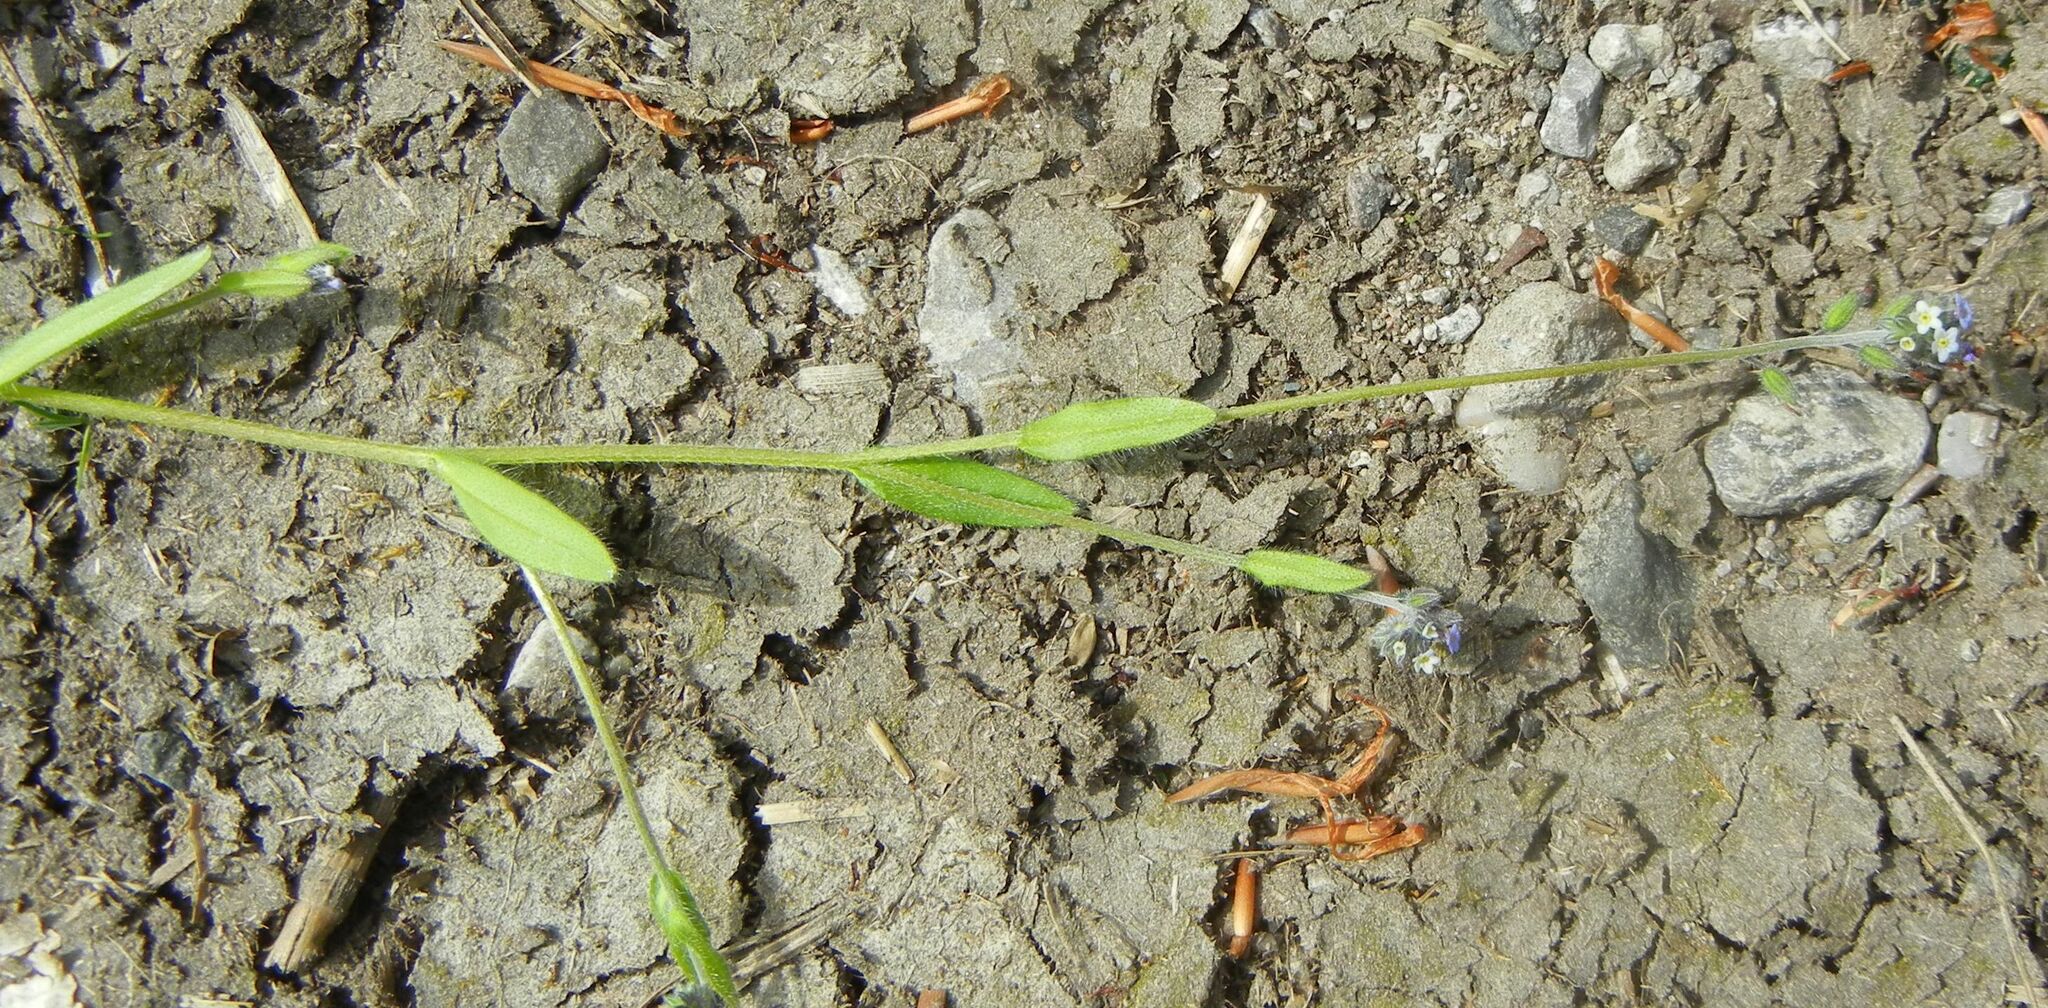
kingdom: Plantae
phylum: Tracheophyta
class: Magnoliopsida
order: Boraginales
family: Boraginaceae
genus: Myosotis
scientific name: Myosotis discolor
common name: Changing forget-me-not
